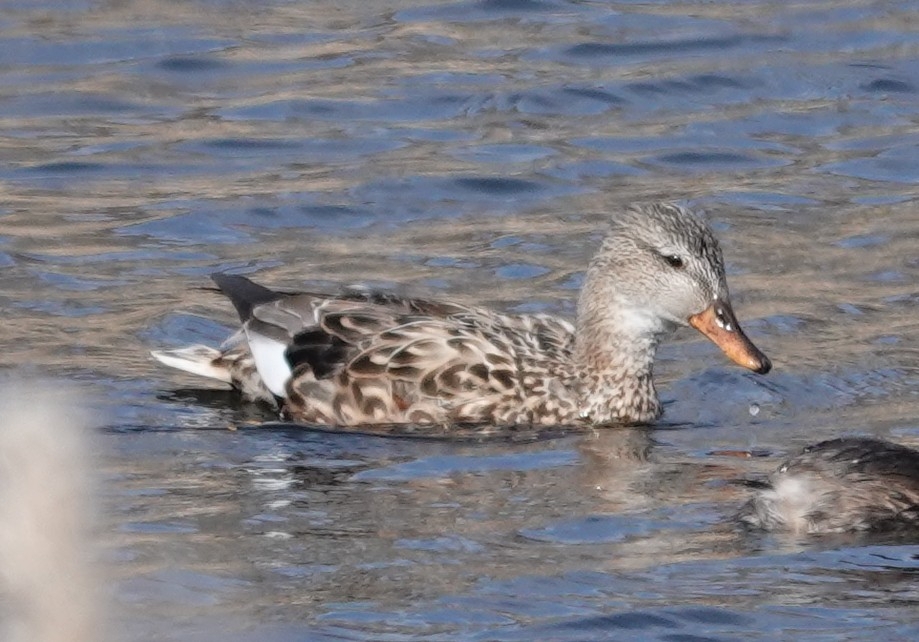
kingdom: Animalia
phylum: Chordata
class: Aves
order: Anseriformes
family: Anatidae
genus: Mareca
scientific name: Mareca strepera
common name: Gadwall
